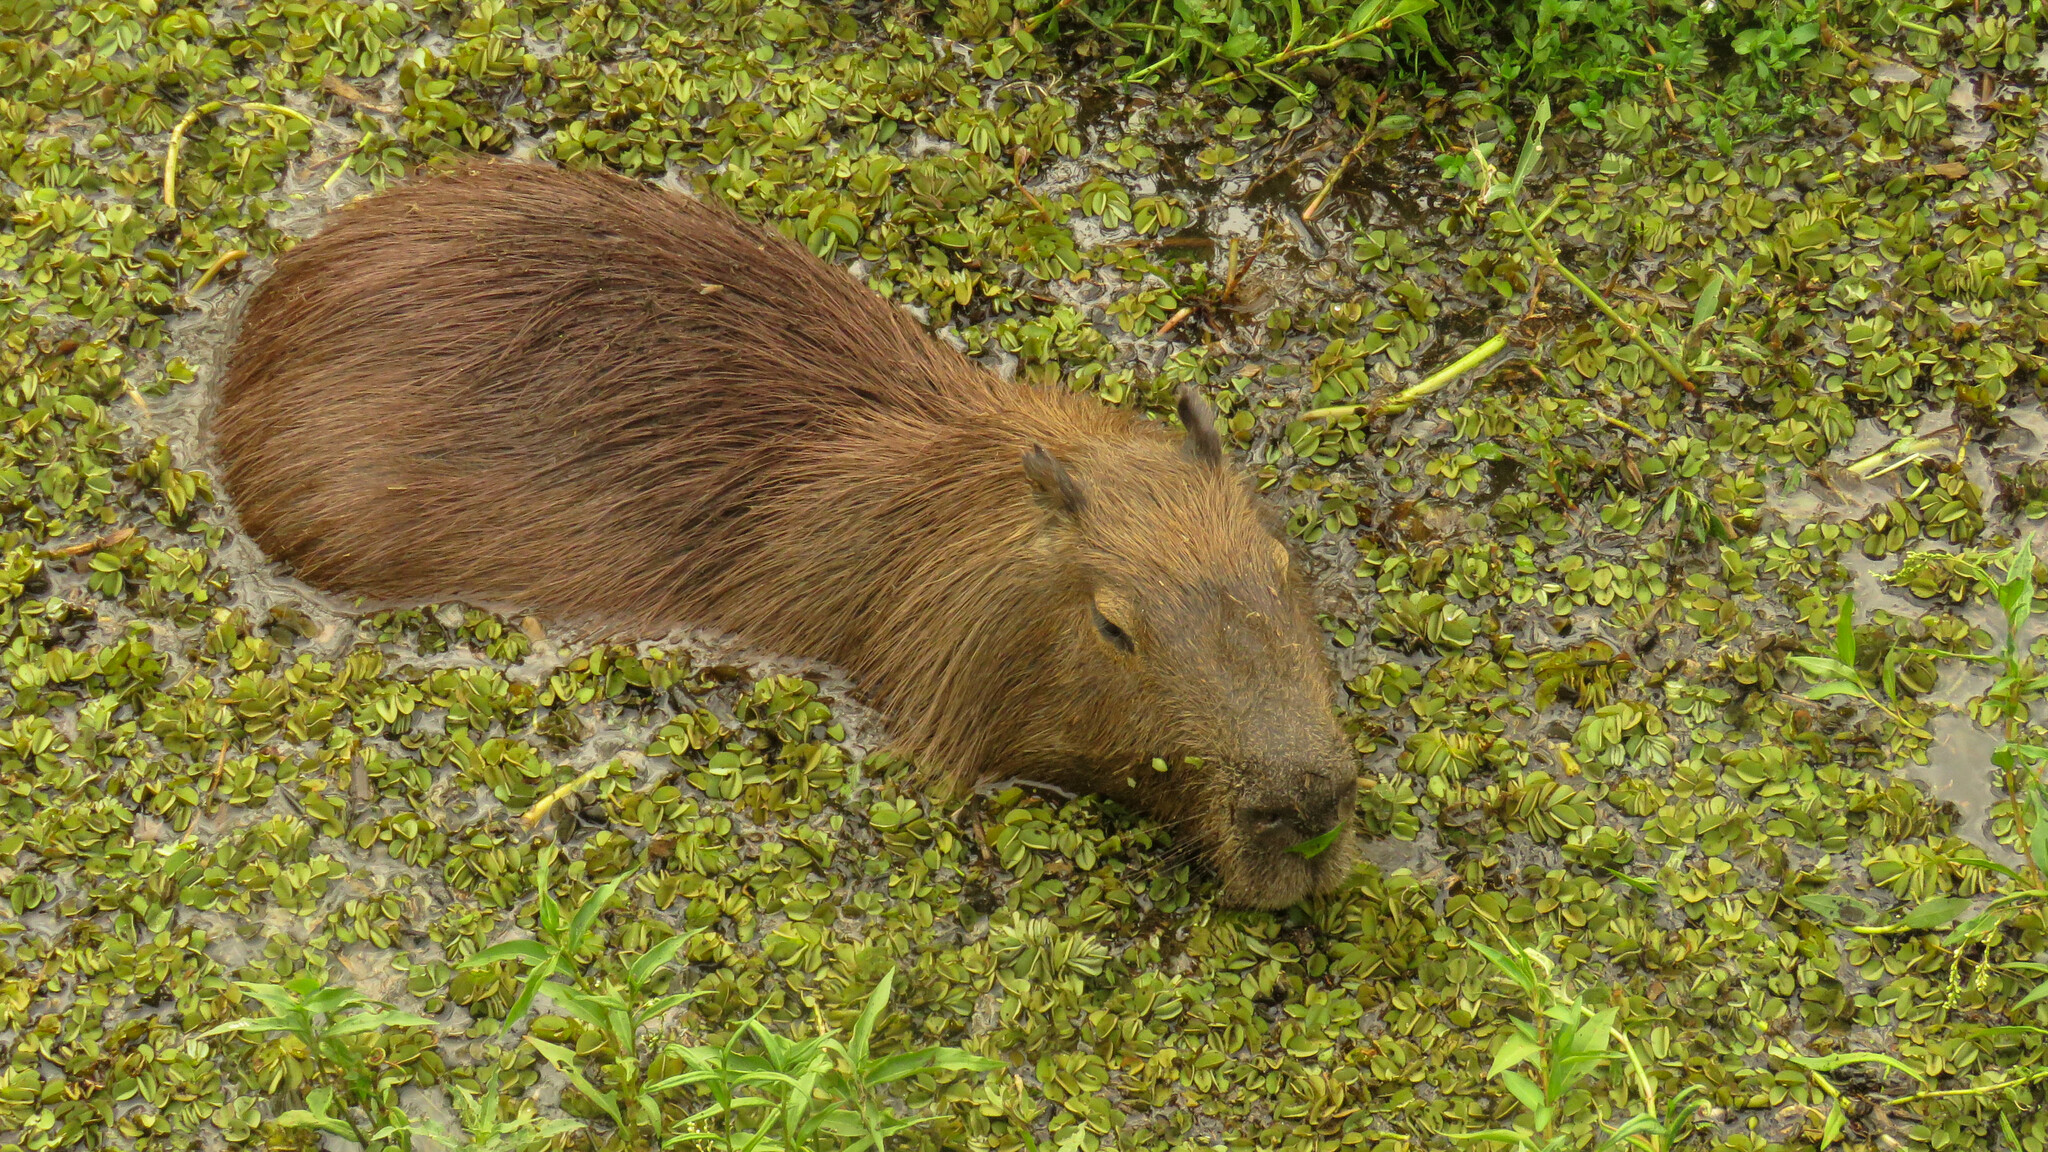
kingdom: Animalia
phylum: Chordata
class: Mammalia
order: Rodentia
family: Caviidae
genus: Hydrochoerus
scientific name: Hydrochoerus hydrochaeris
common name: Capybara
